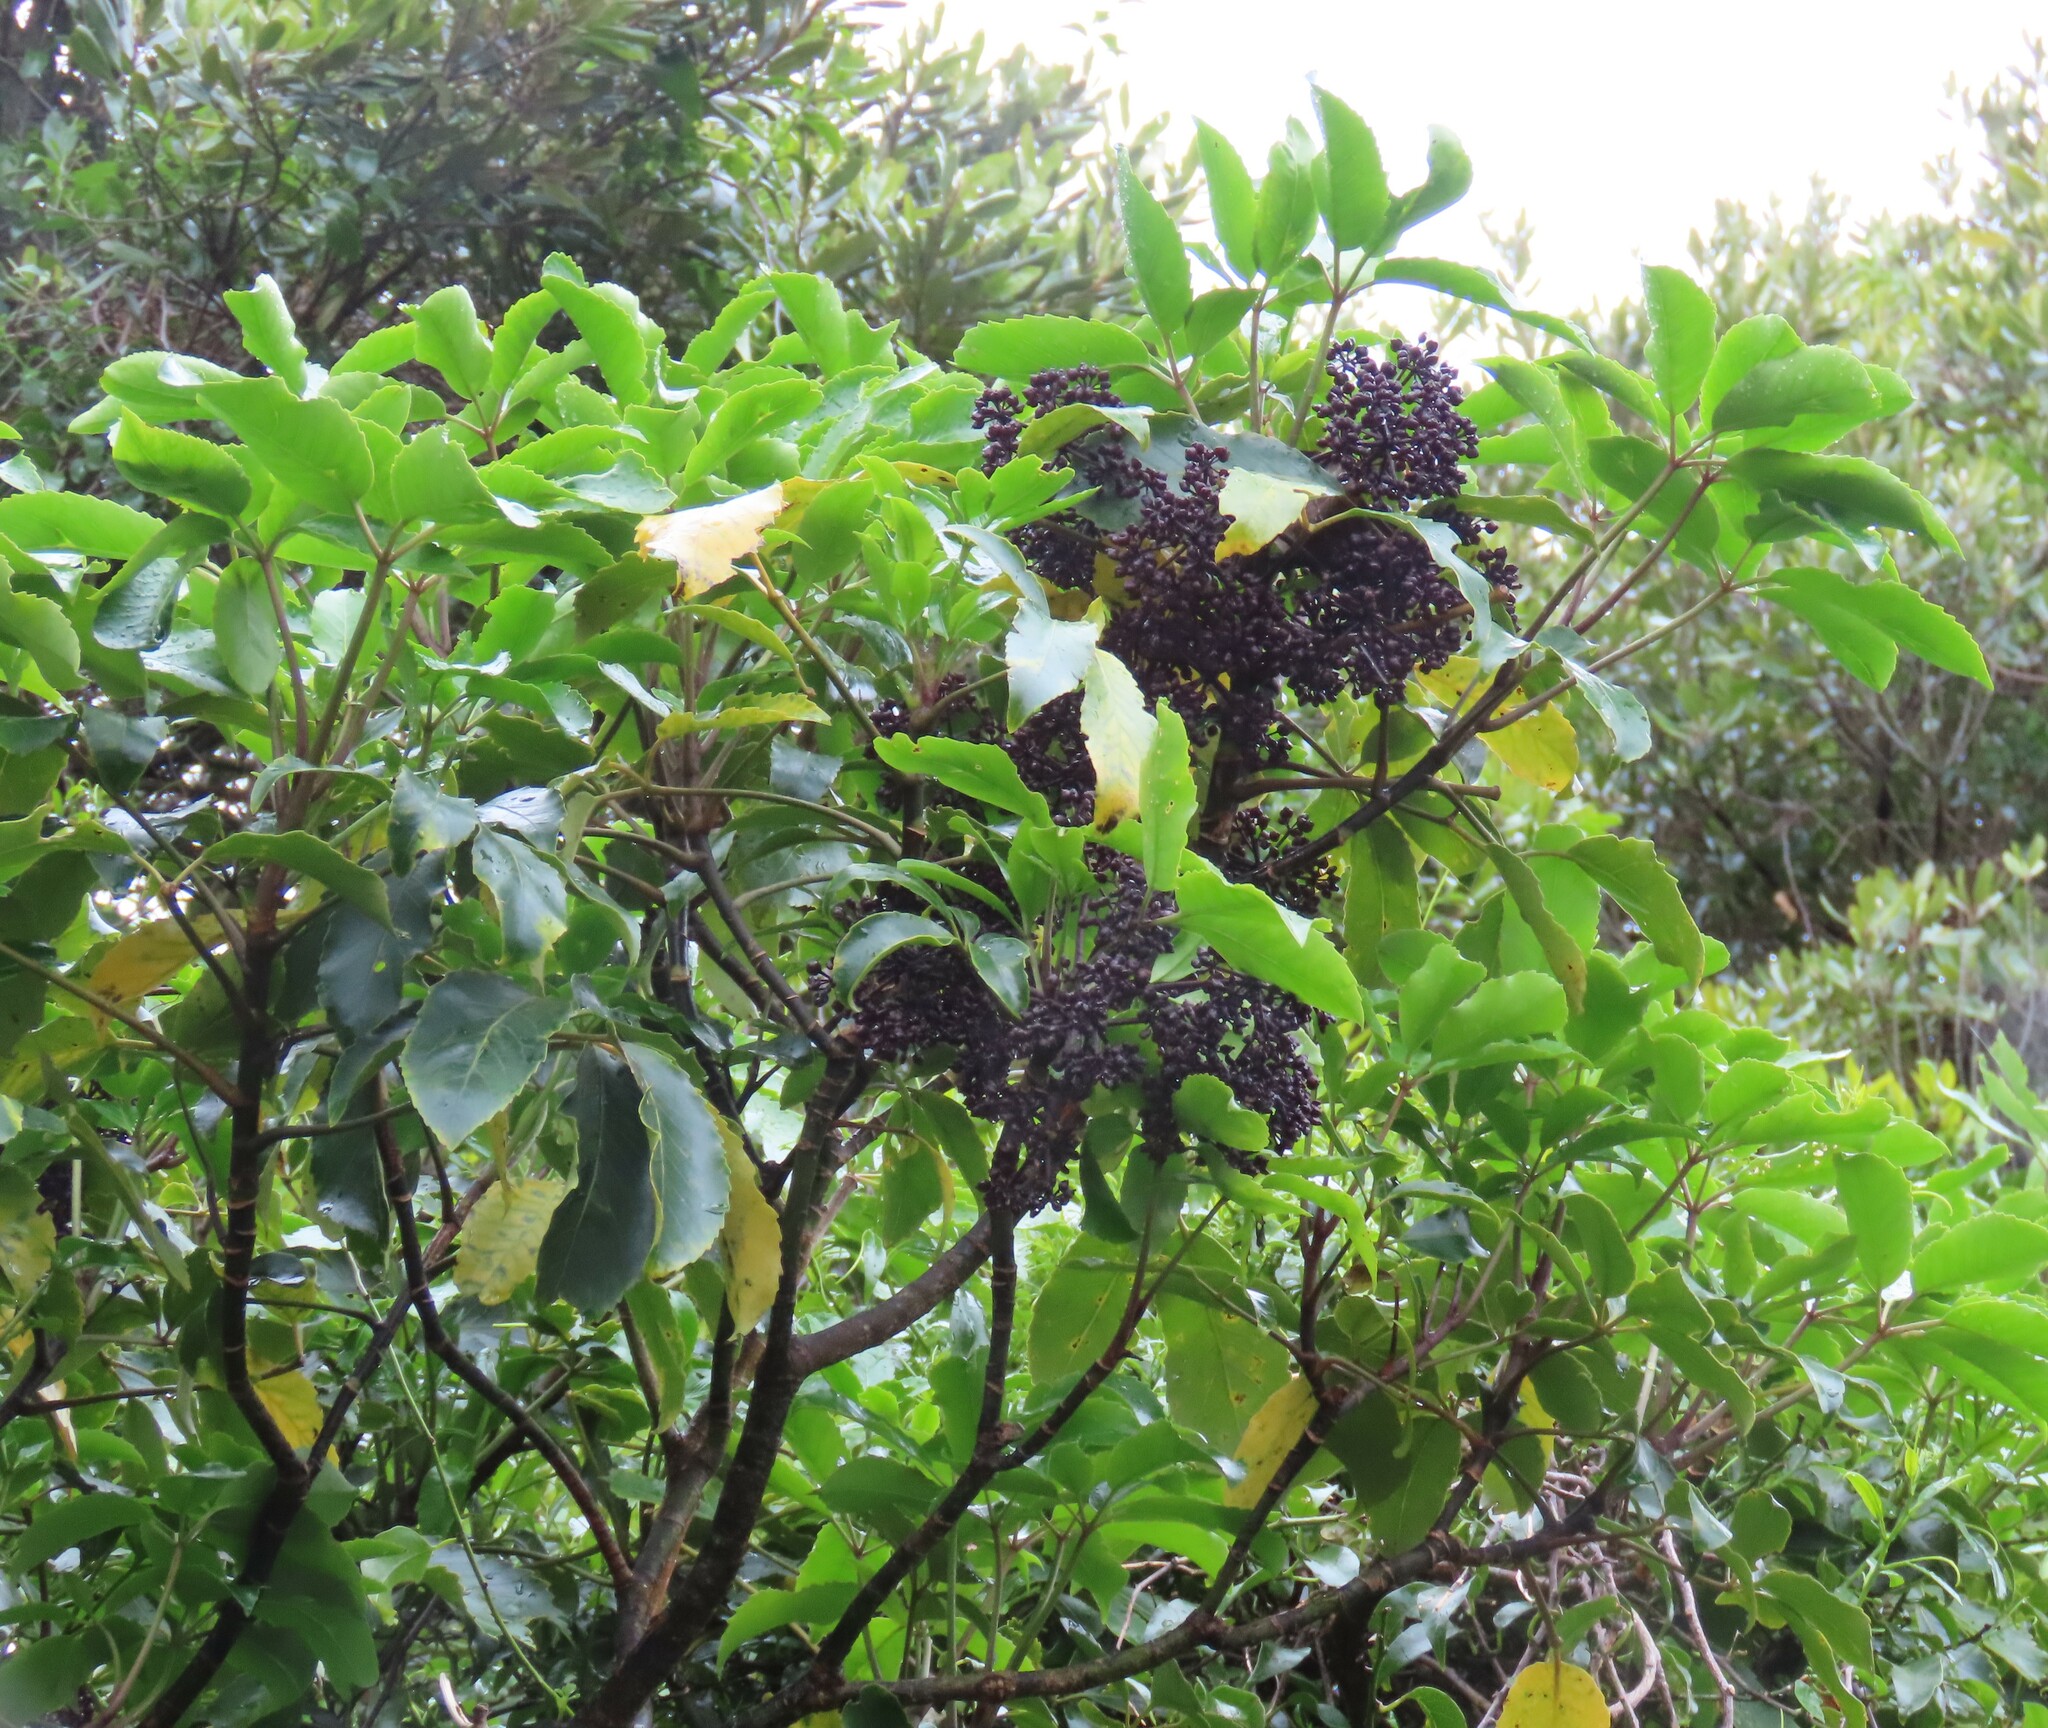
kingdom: Plantae
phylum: Tracheophyta
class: Magnoliopsida
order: Apiales
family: Araliaceae
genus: Neopanax
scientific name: Neopanax arboreus
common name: Five-fingers
